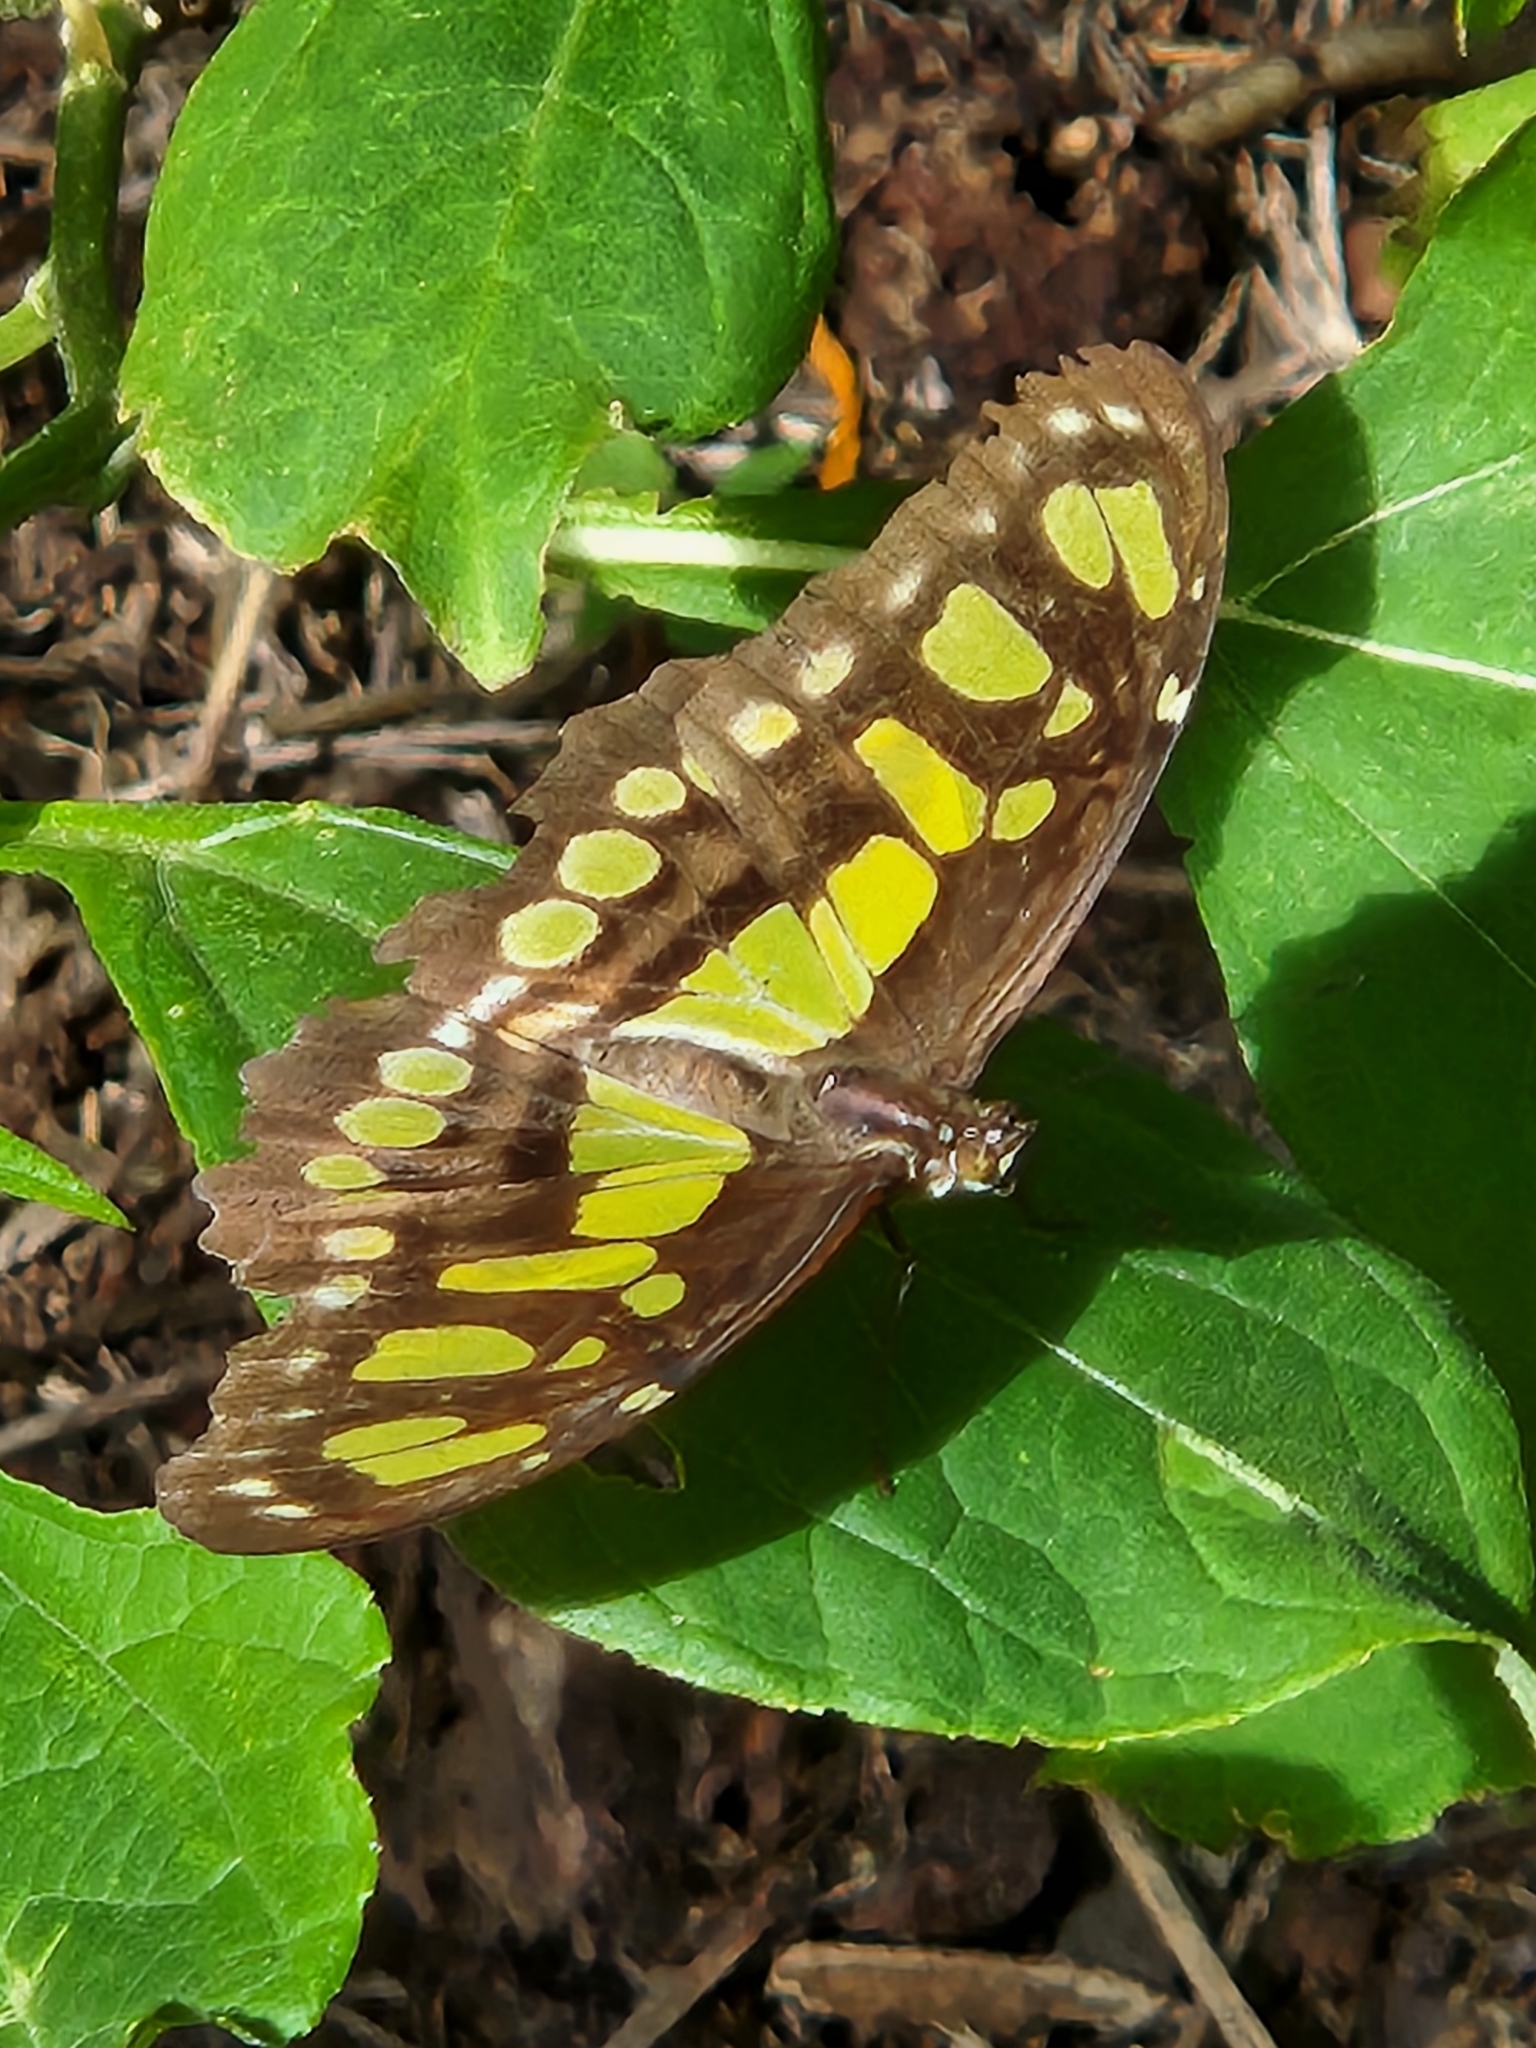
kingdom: Animalia
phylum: Arthropoda
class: Insecta
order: Lepidoptera
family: Nymphalidae
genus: Siproeta
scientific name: Siproeta stelenes
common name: Malachite
